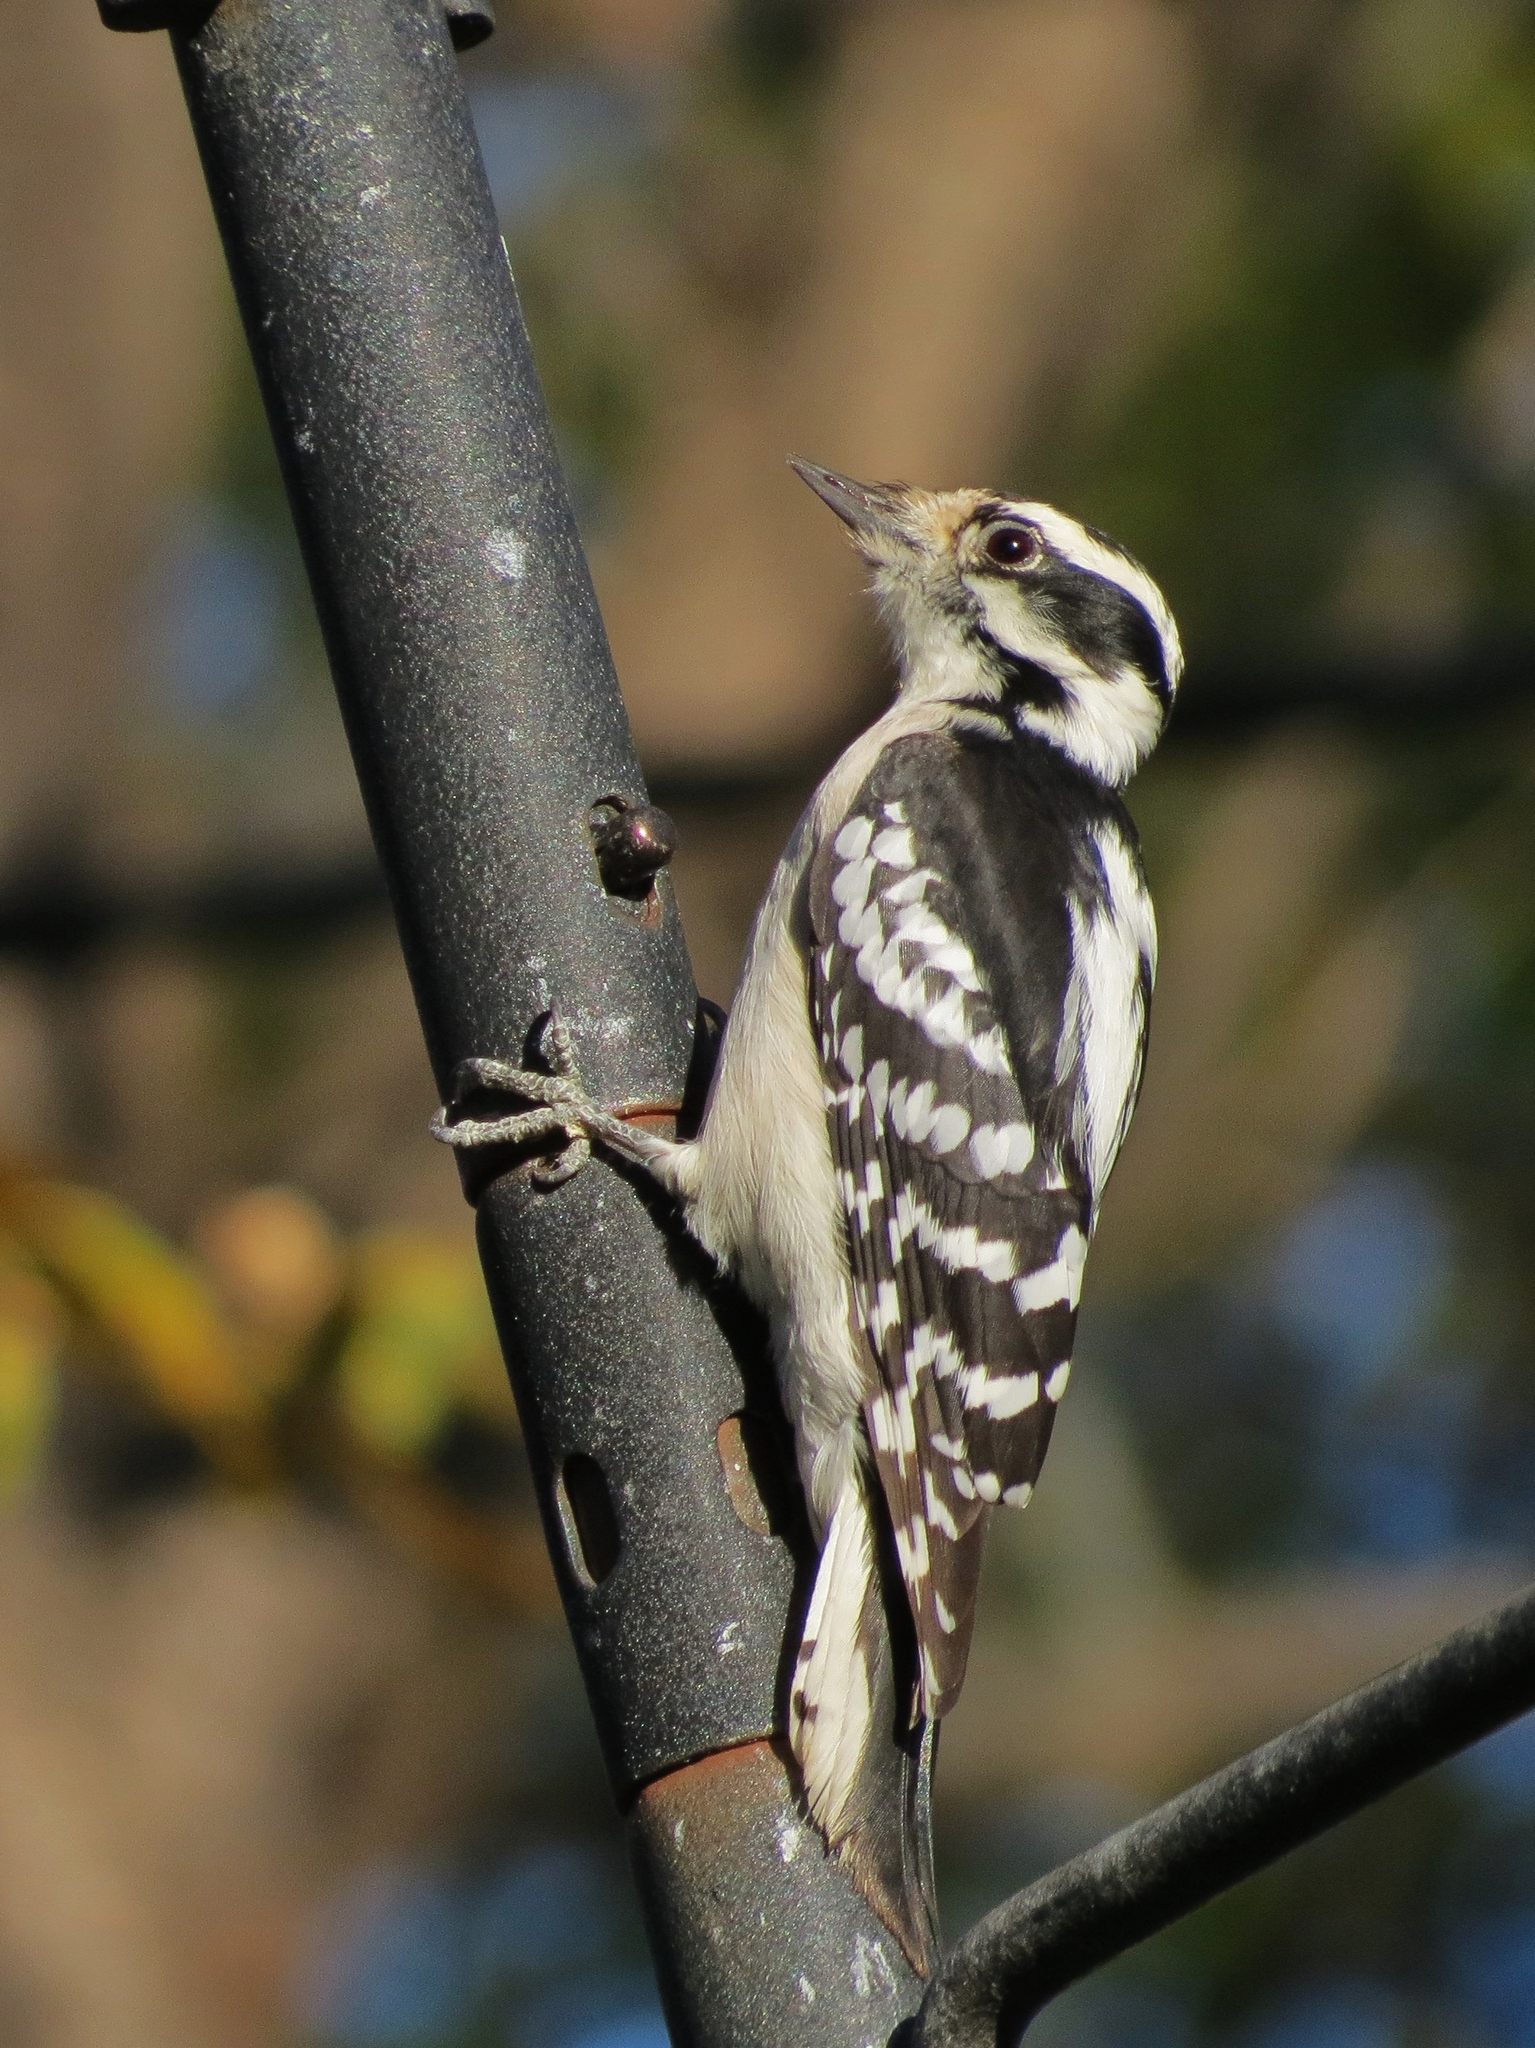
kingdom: Animalia
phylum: Chordata
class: Aves
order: Piciformes
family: Picidae
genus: Dryobates
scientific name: Dryobates pubescens
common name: Downy woodpecker
